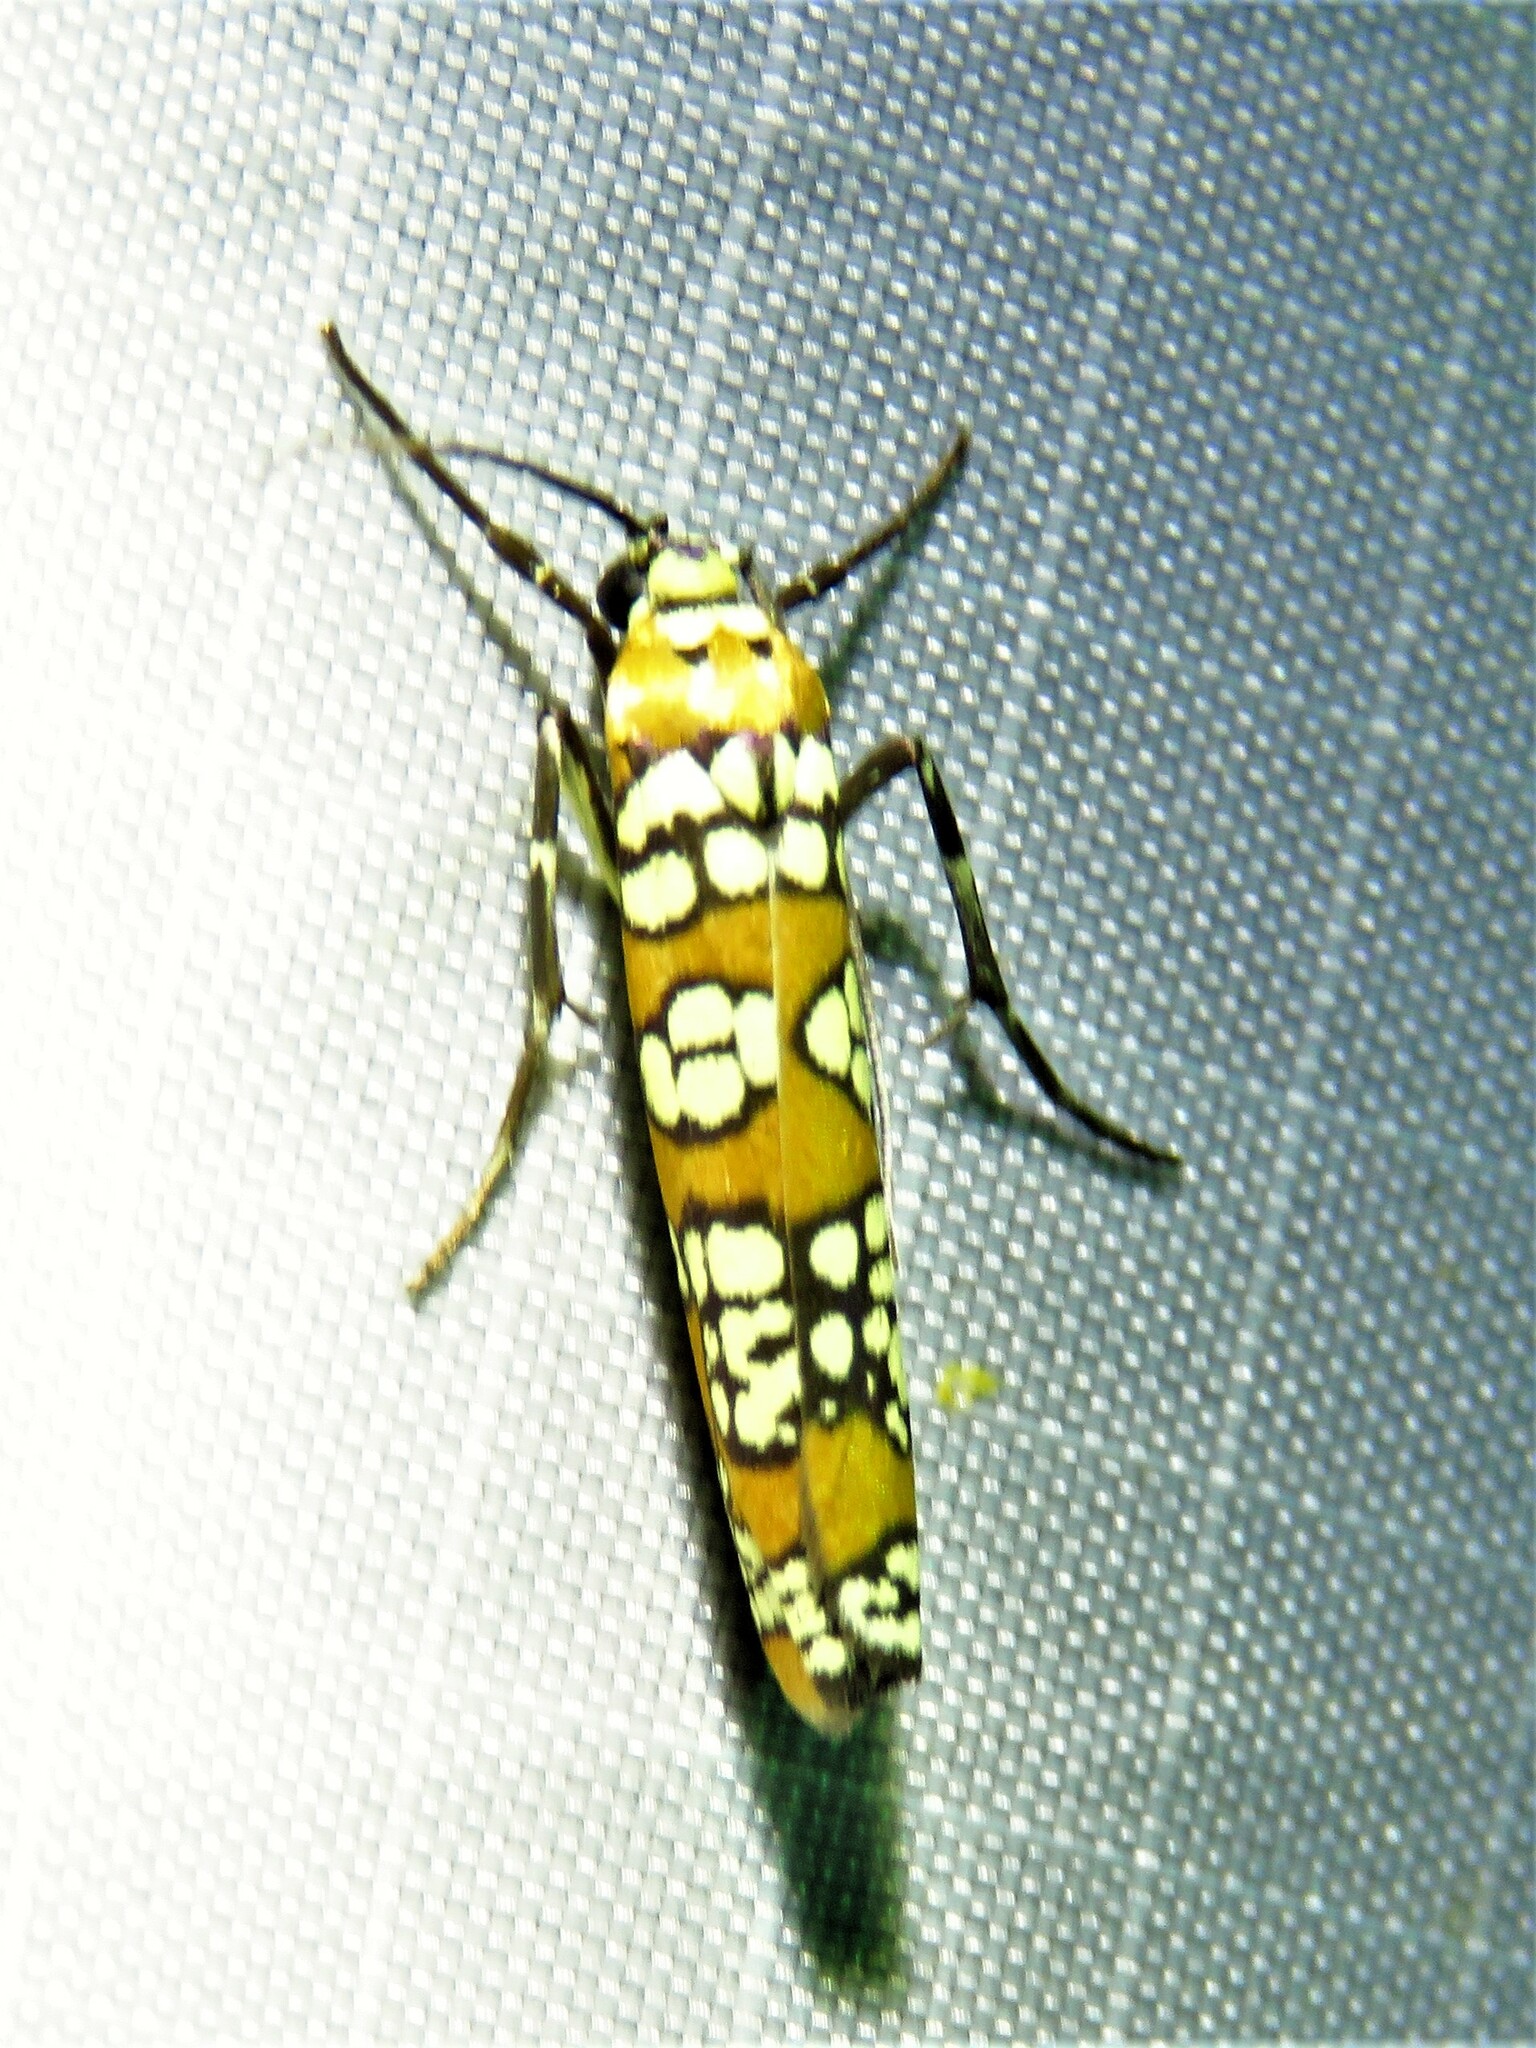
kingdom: Animalia
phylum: Arthropoda
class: Insecta
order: Lepidoptera
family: Attevidae
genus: Atteva
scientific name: Atteva punctella
